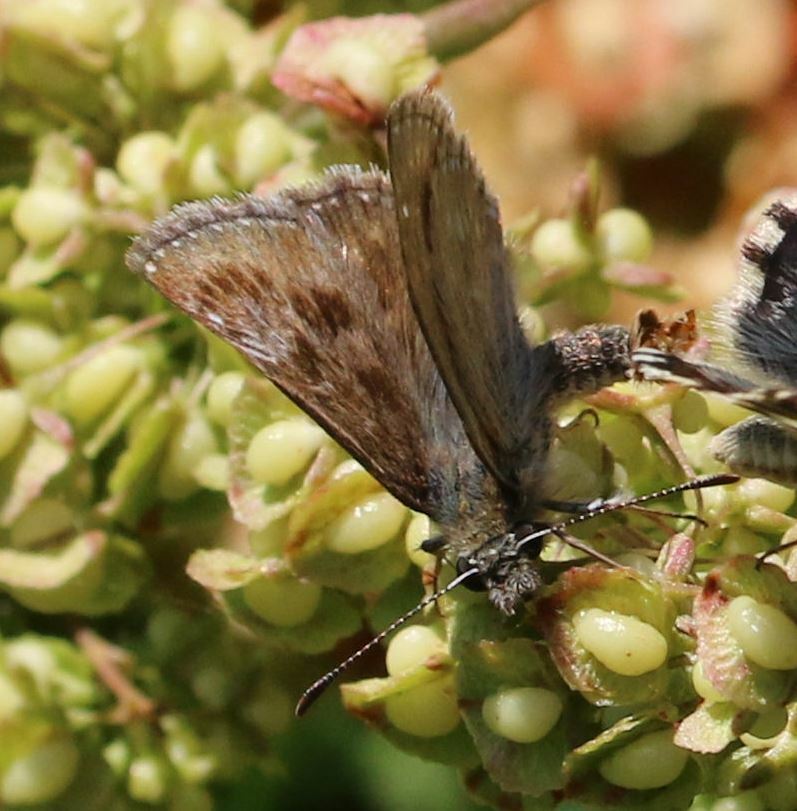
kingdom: Animalia
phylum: Arthropoda
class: Insecta
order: Lepidoptera
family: Hesperiidae
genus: Erynnis
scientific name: Erynnis tages
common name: Dingy skipper
